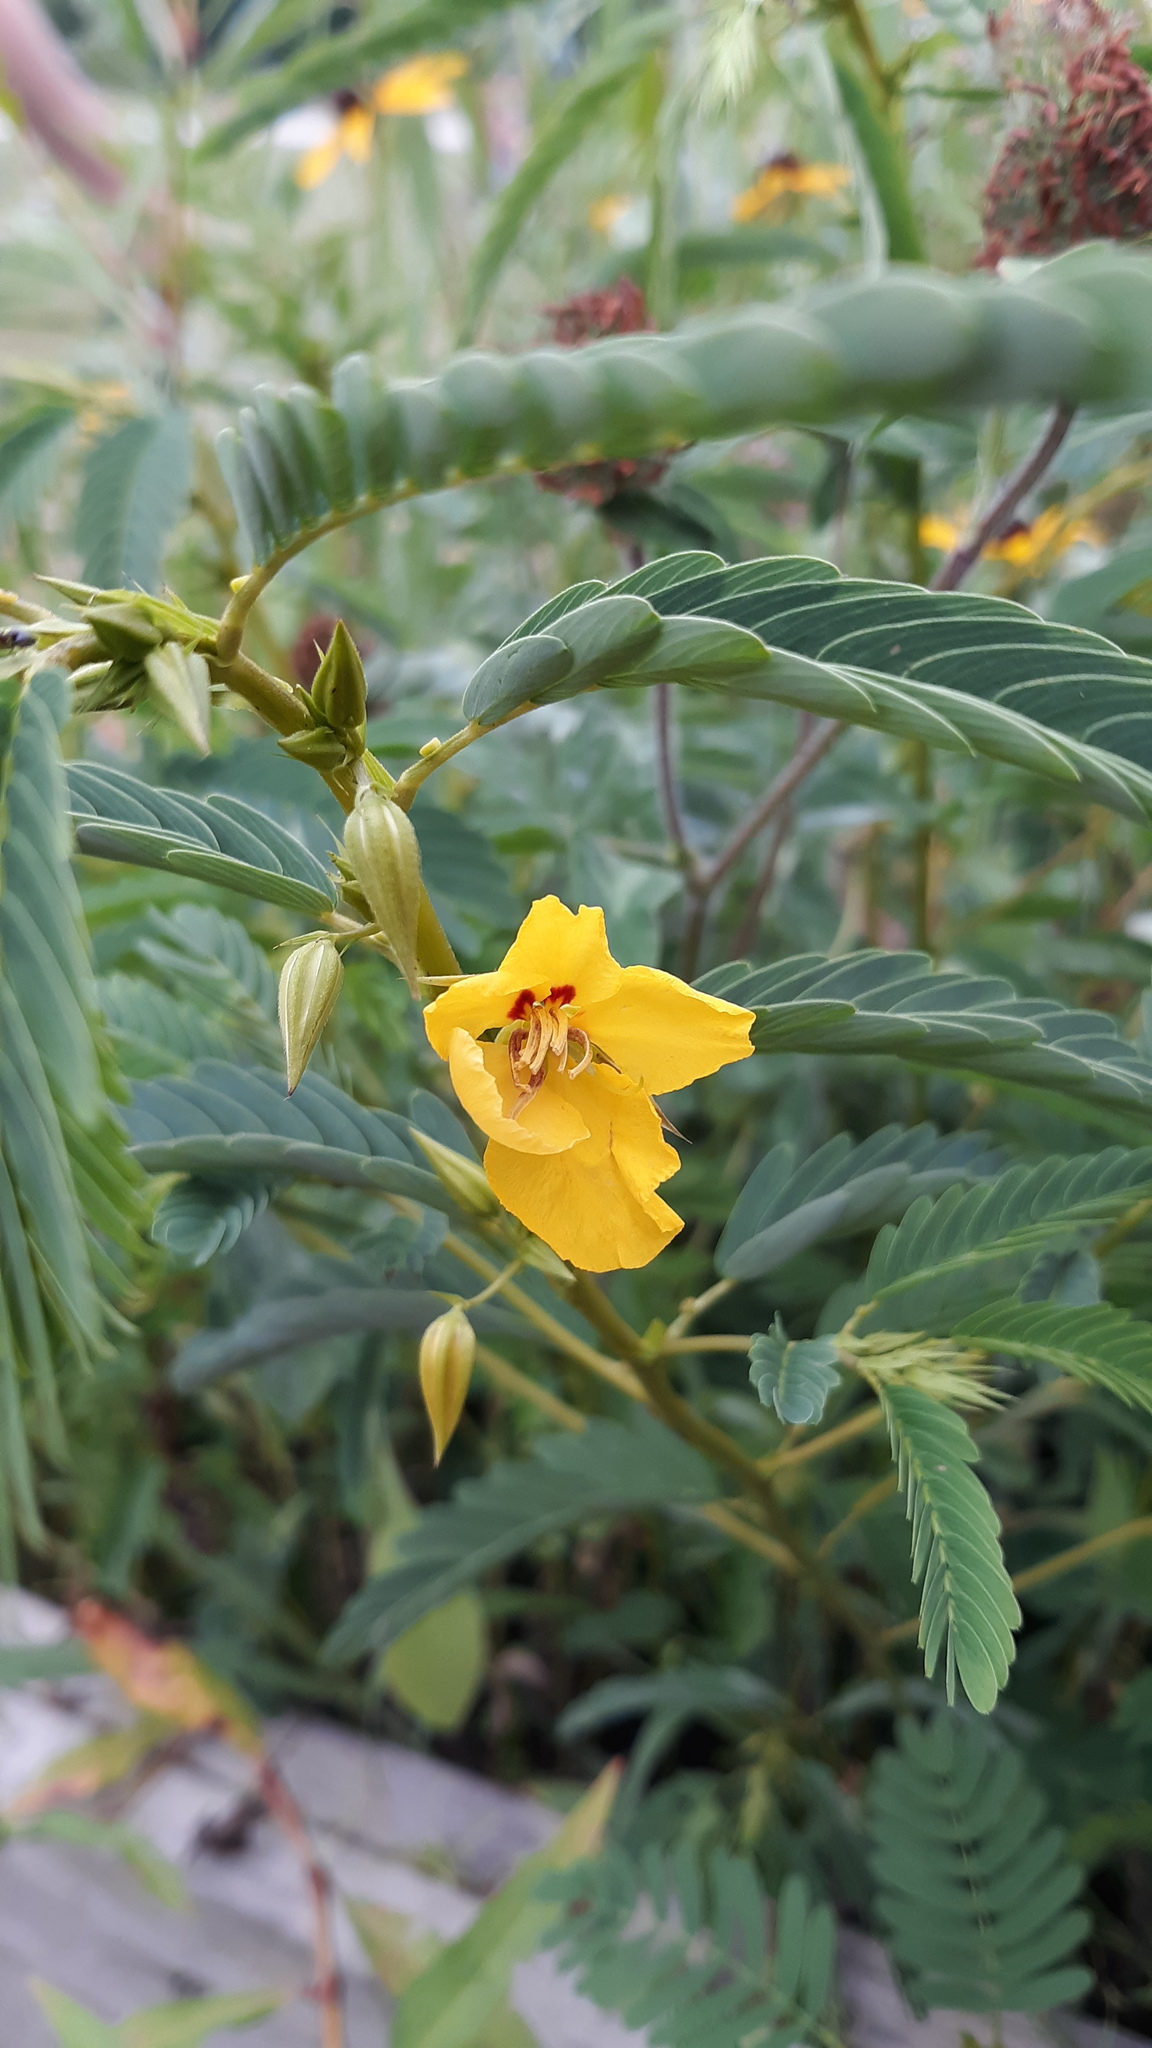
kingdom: Plantae
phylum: Tracheophyta
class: Magnoliopsida
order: Fabales
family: Fabaceae
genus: Chamaecrista
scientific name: Chamaecrista fasciculata
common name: Golden cassia
